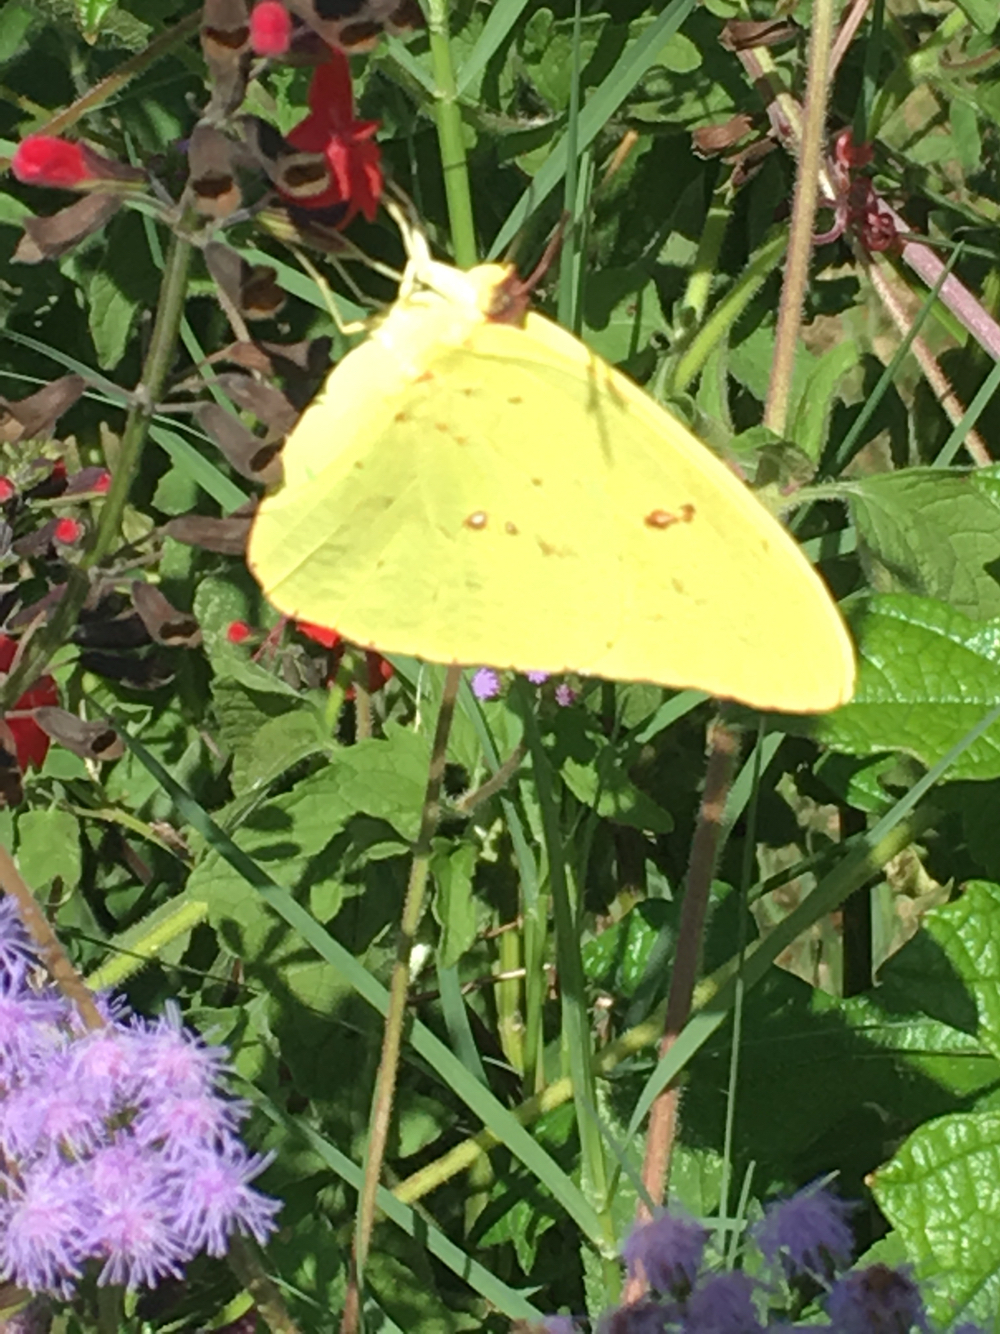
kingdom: Animalia
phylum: Arthropoda
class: Insecta
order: Lepidoptera
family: Pieridae
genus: Phoebis
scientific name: Phoebis sennae
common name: Cloudless sulphur
